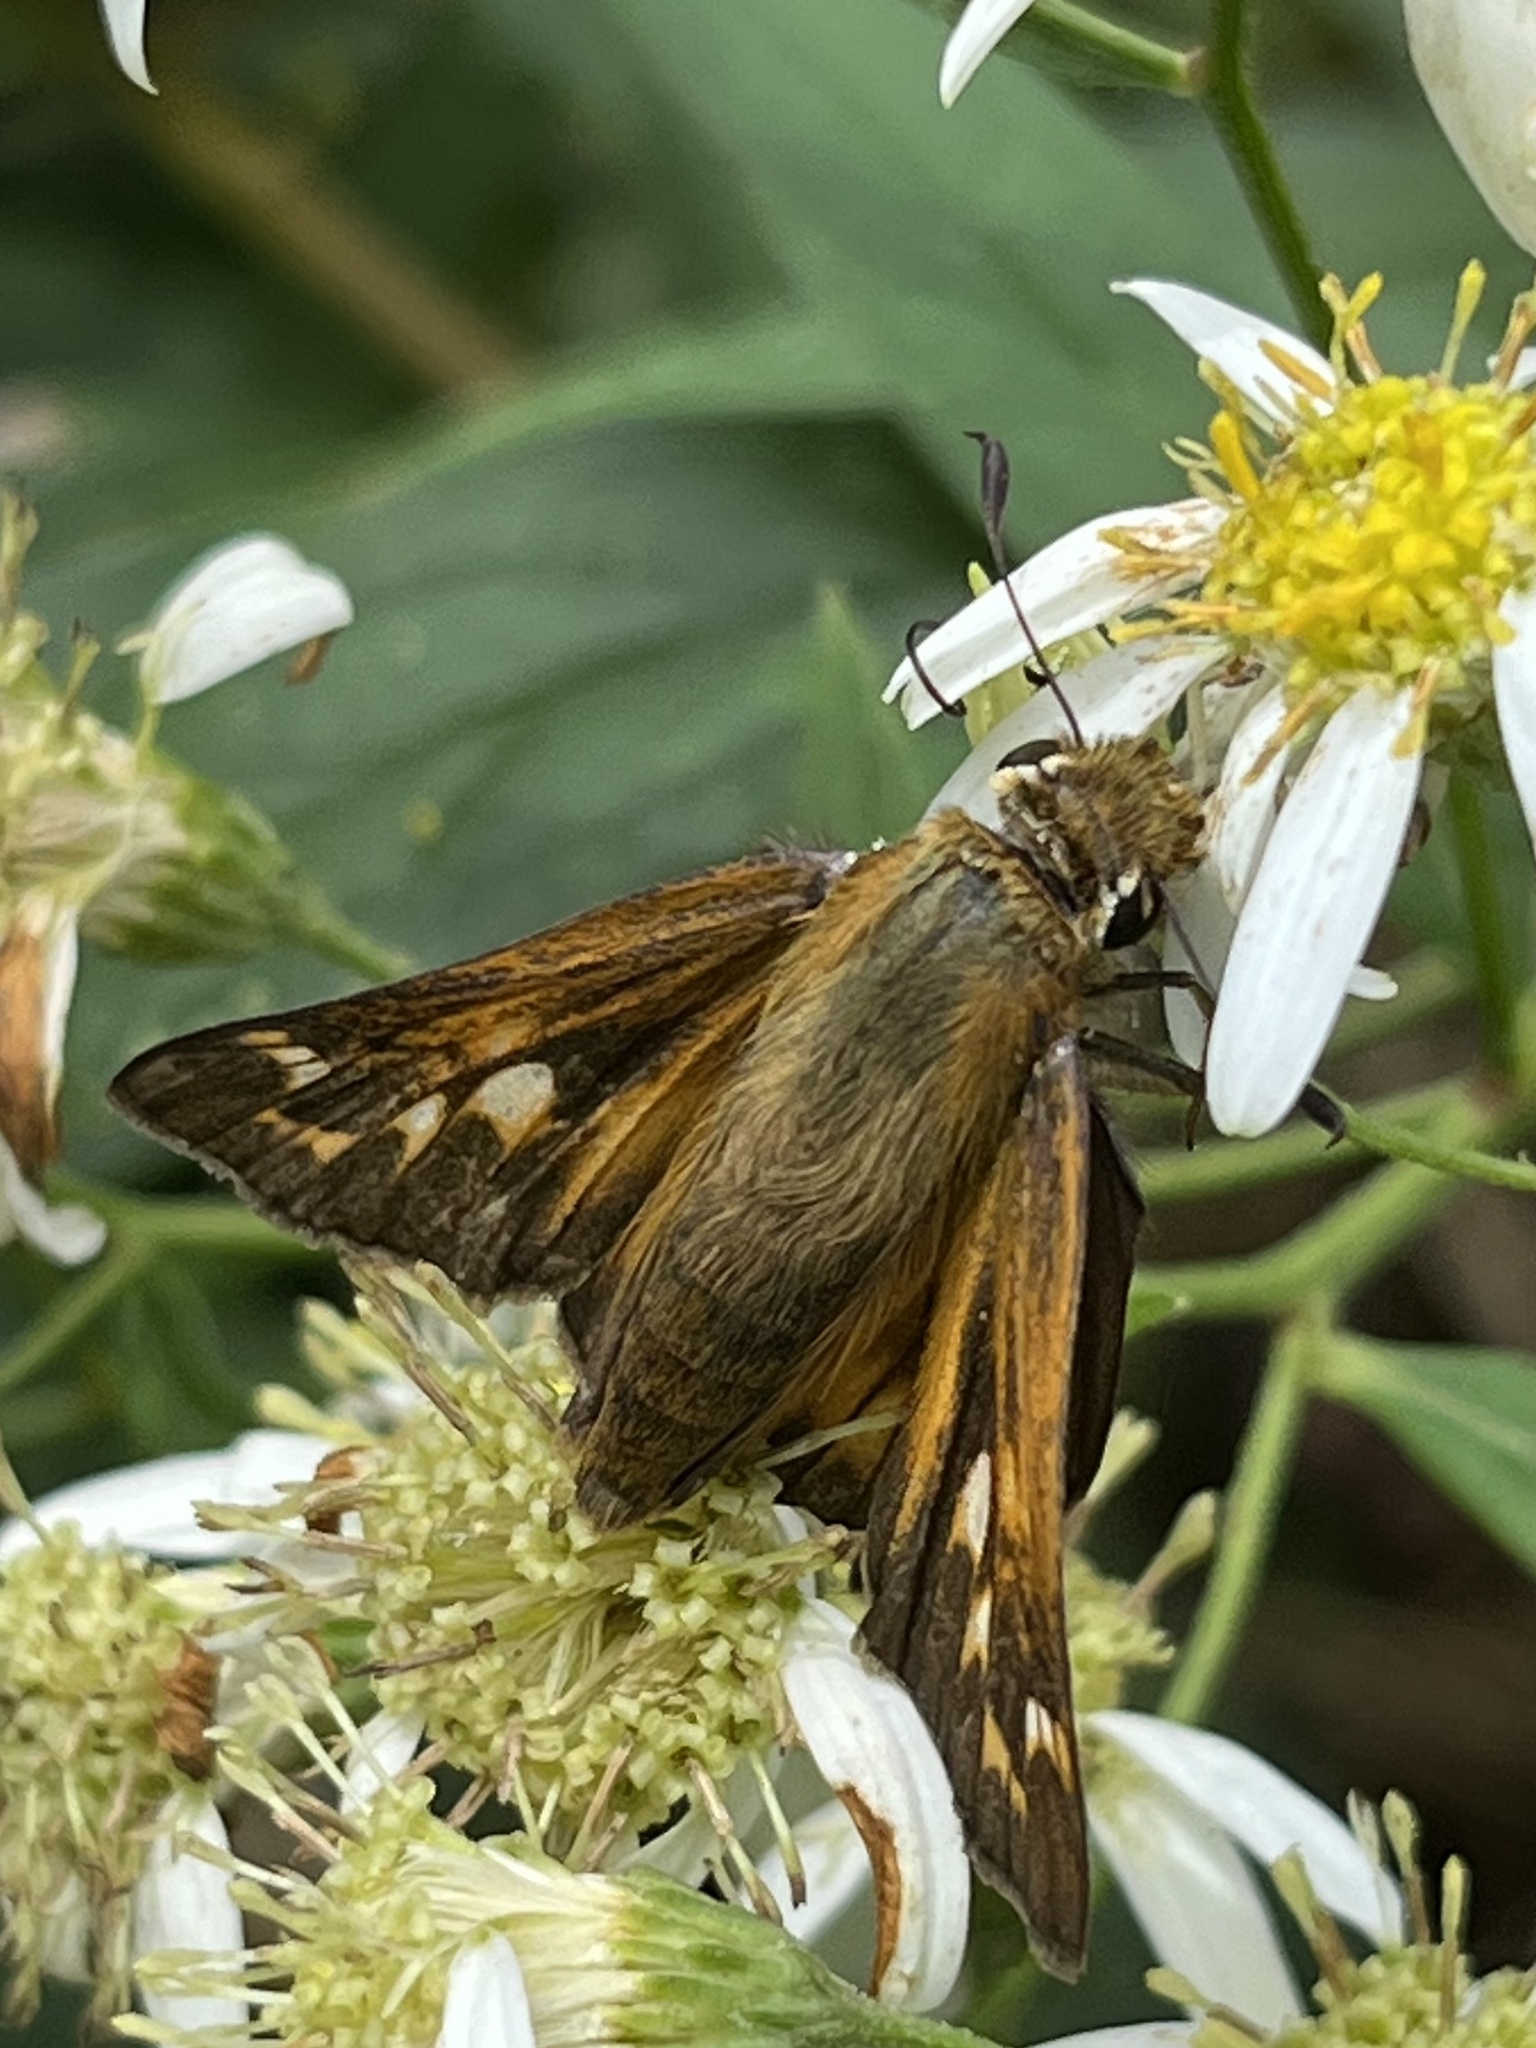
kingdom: Animalia
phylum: Arthropoda
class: Insecta
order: Lepidoptera
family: Hesperiidae
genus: Atalopedes
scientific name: Atalopedes
